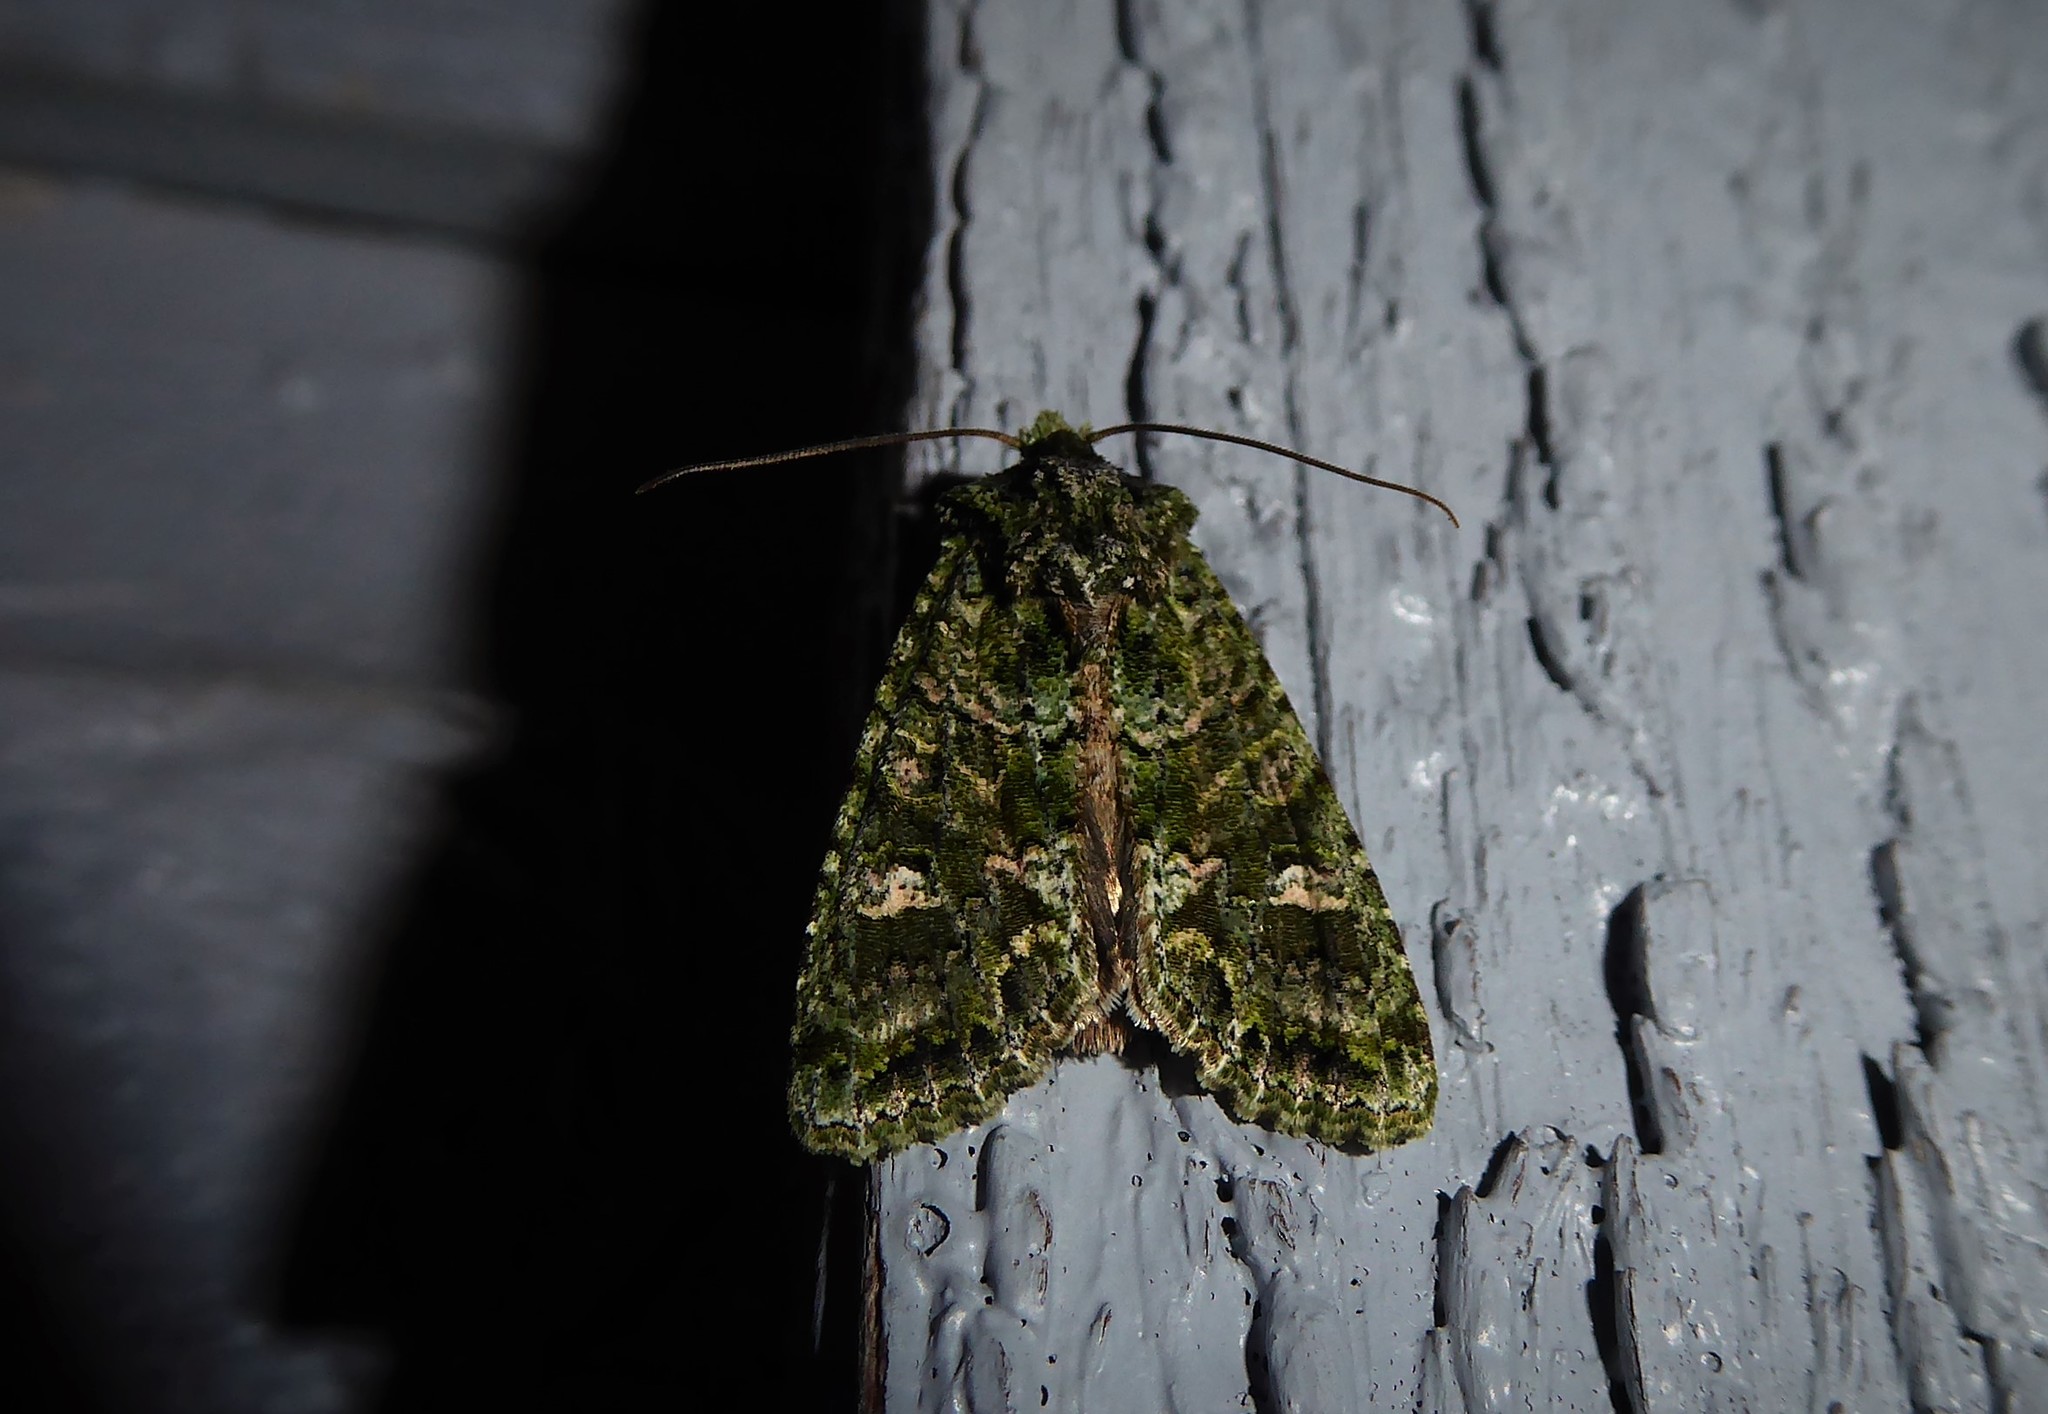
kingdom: Animalia
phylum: Arthropoda
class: Insecta
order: Lepidoptera
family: Noctuidae
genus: Ichneutica
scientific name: Ichneutica
